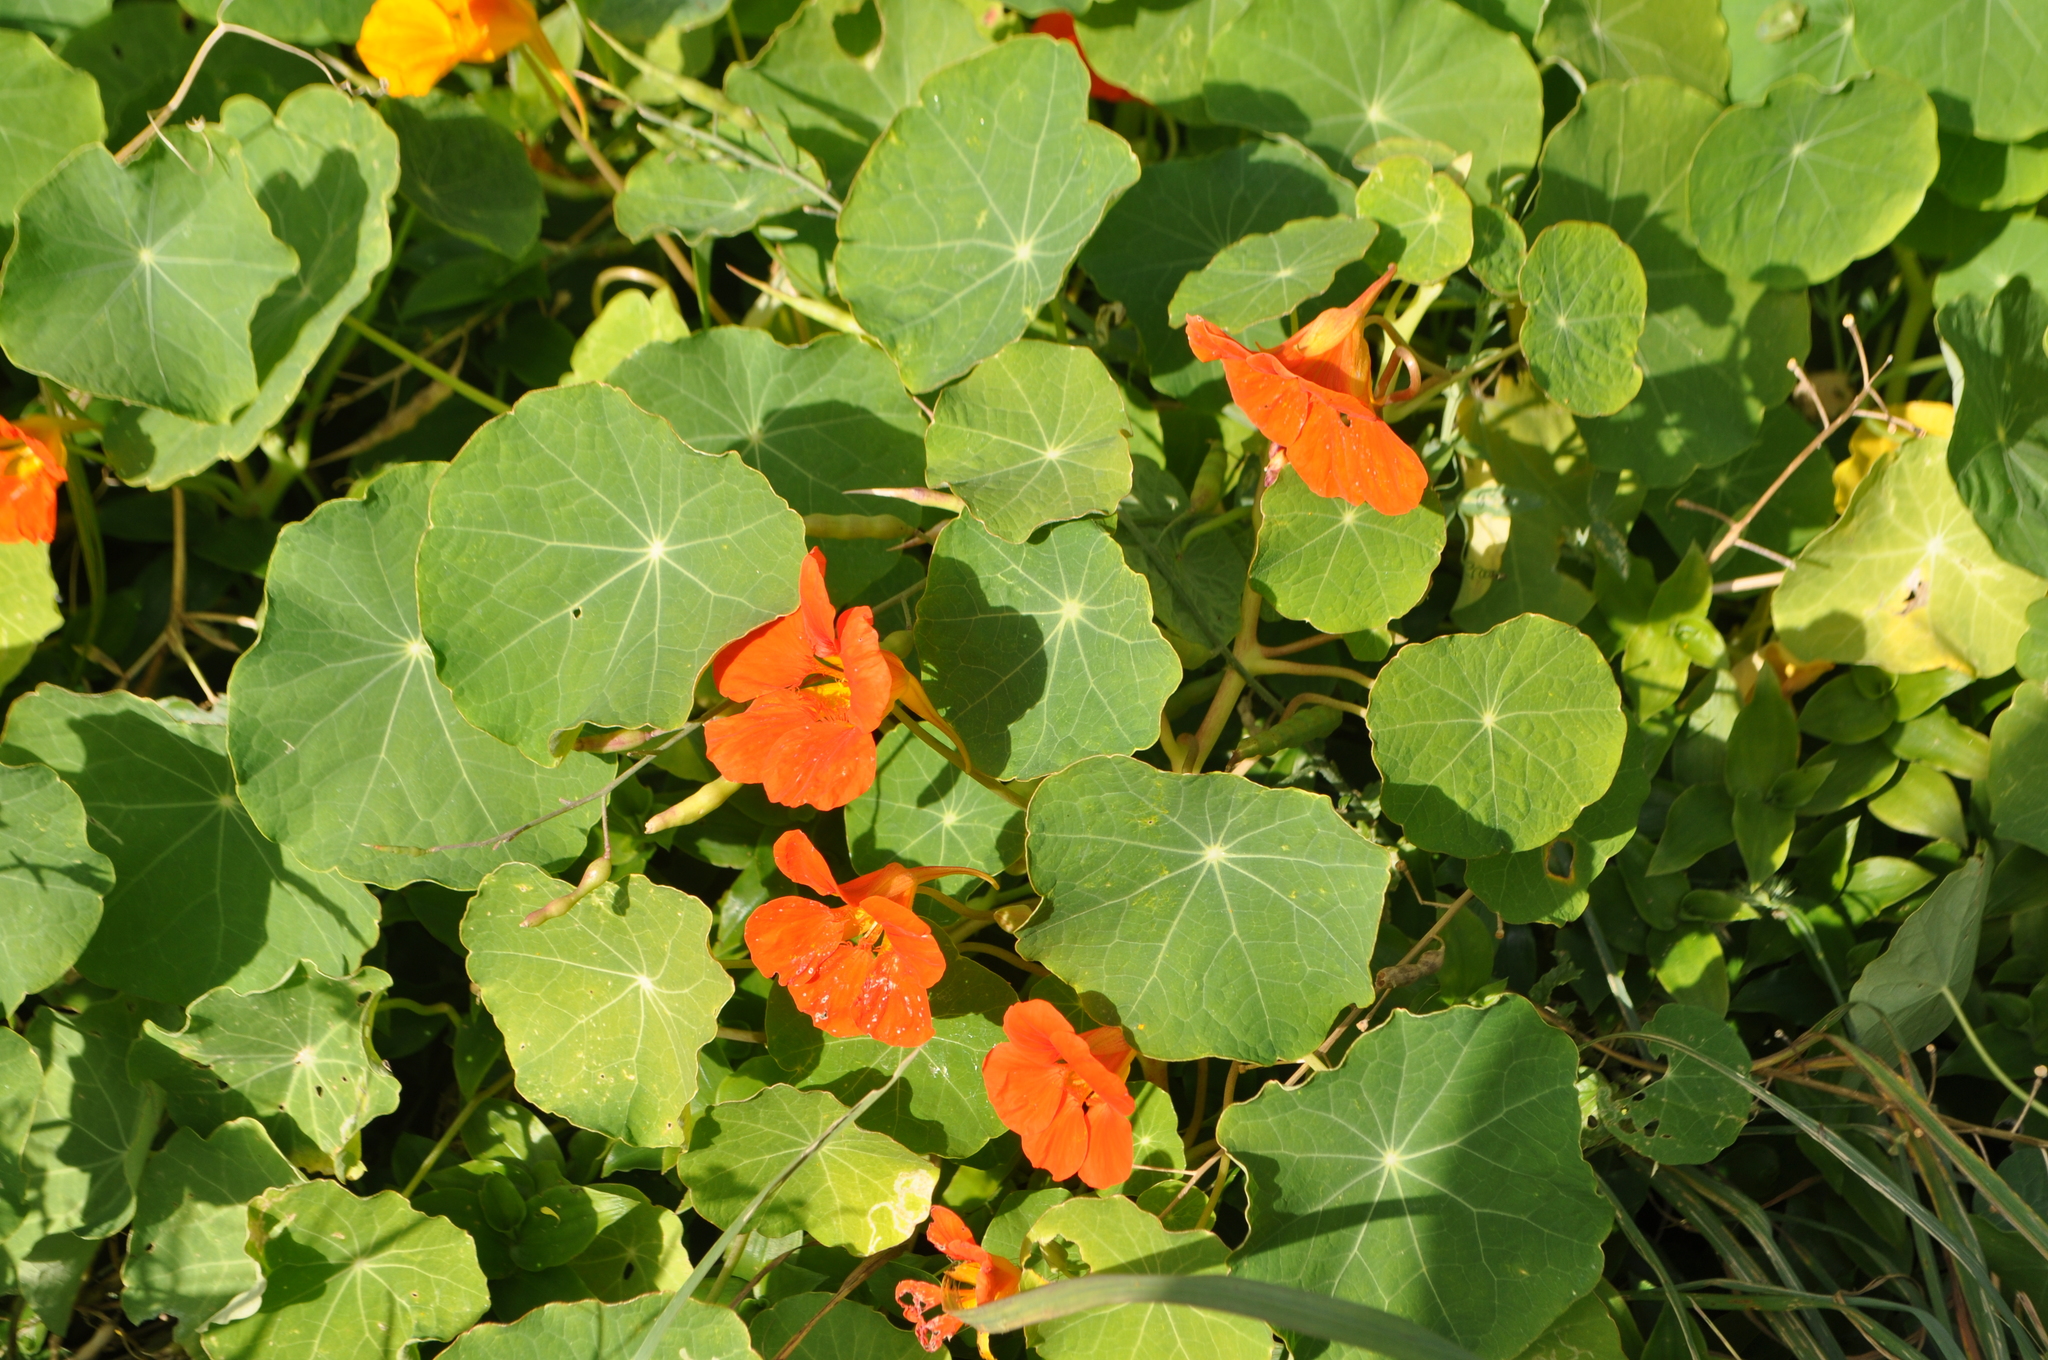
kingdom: Plantae
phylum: Tracheophyta
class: Magnoliopsida
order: Brassicales
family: Tropaeolaceae
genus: Tropaeolum
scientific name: Tropaeolum majus
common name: Nasturtium
